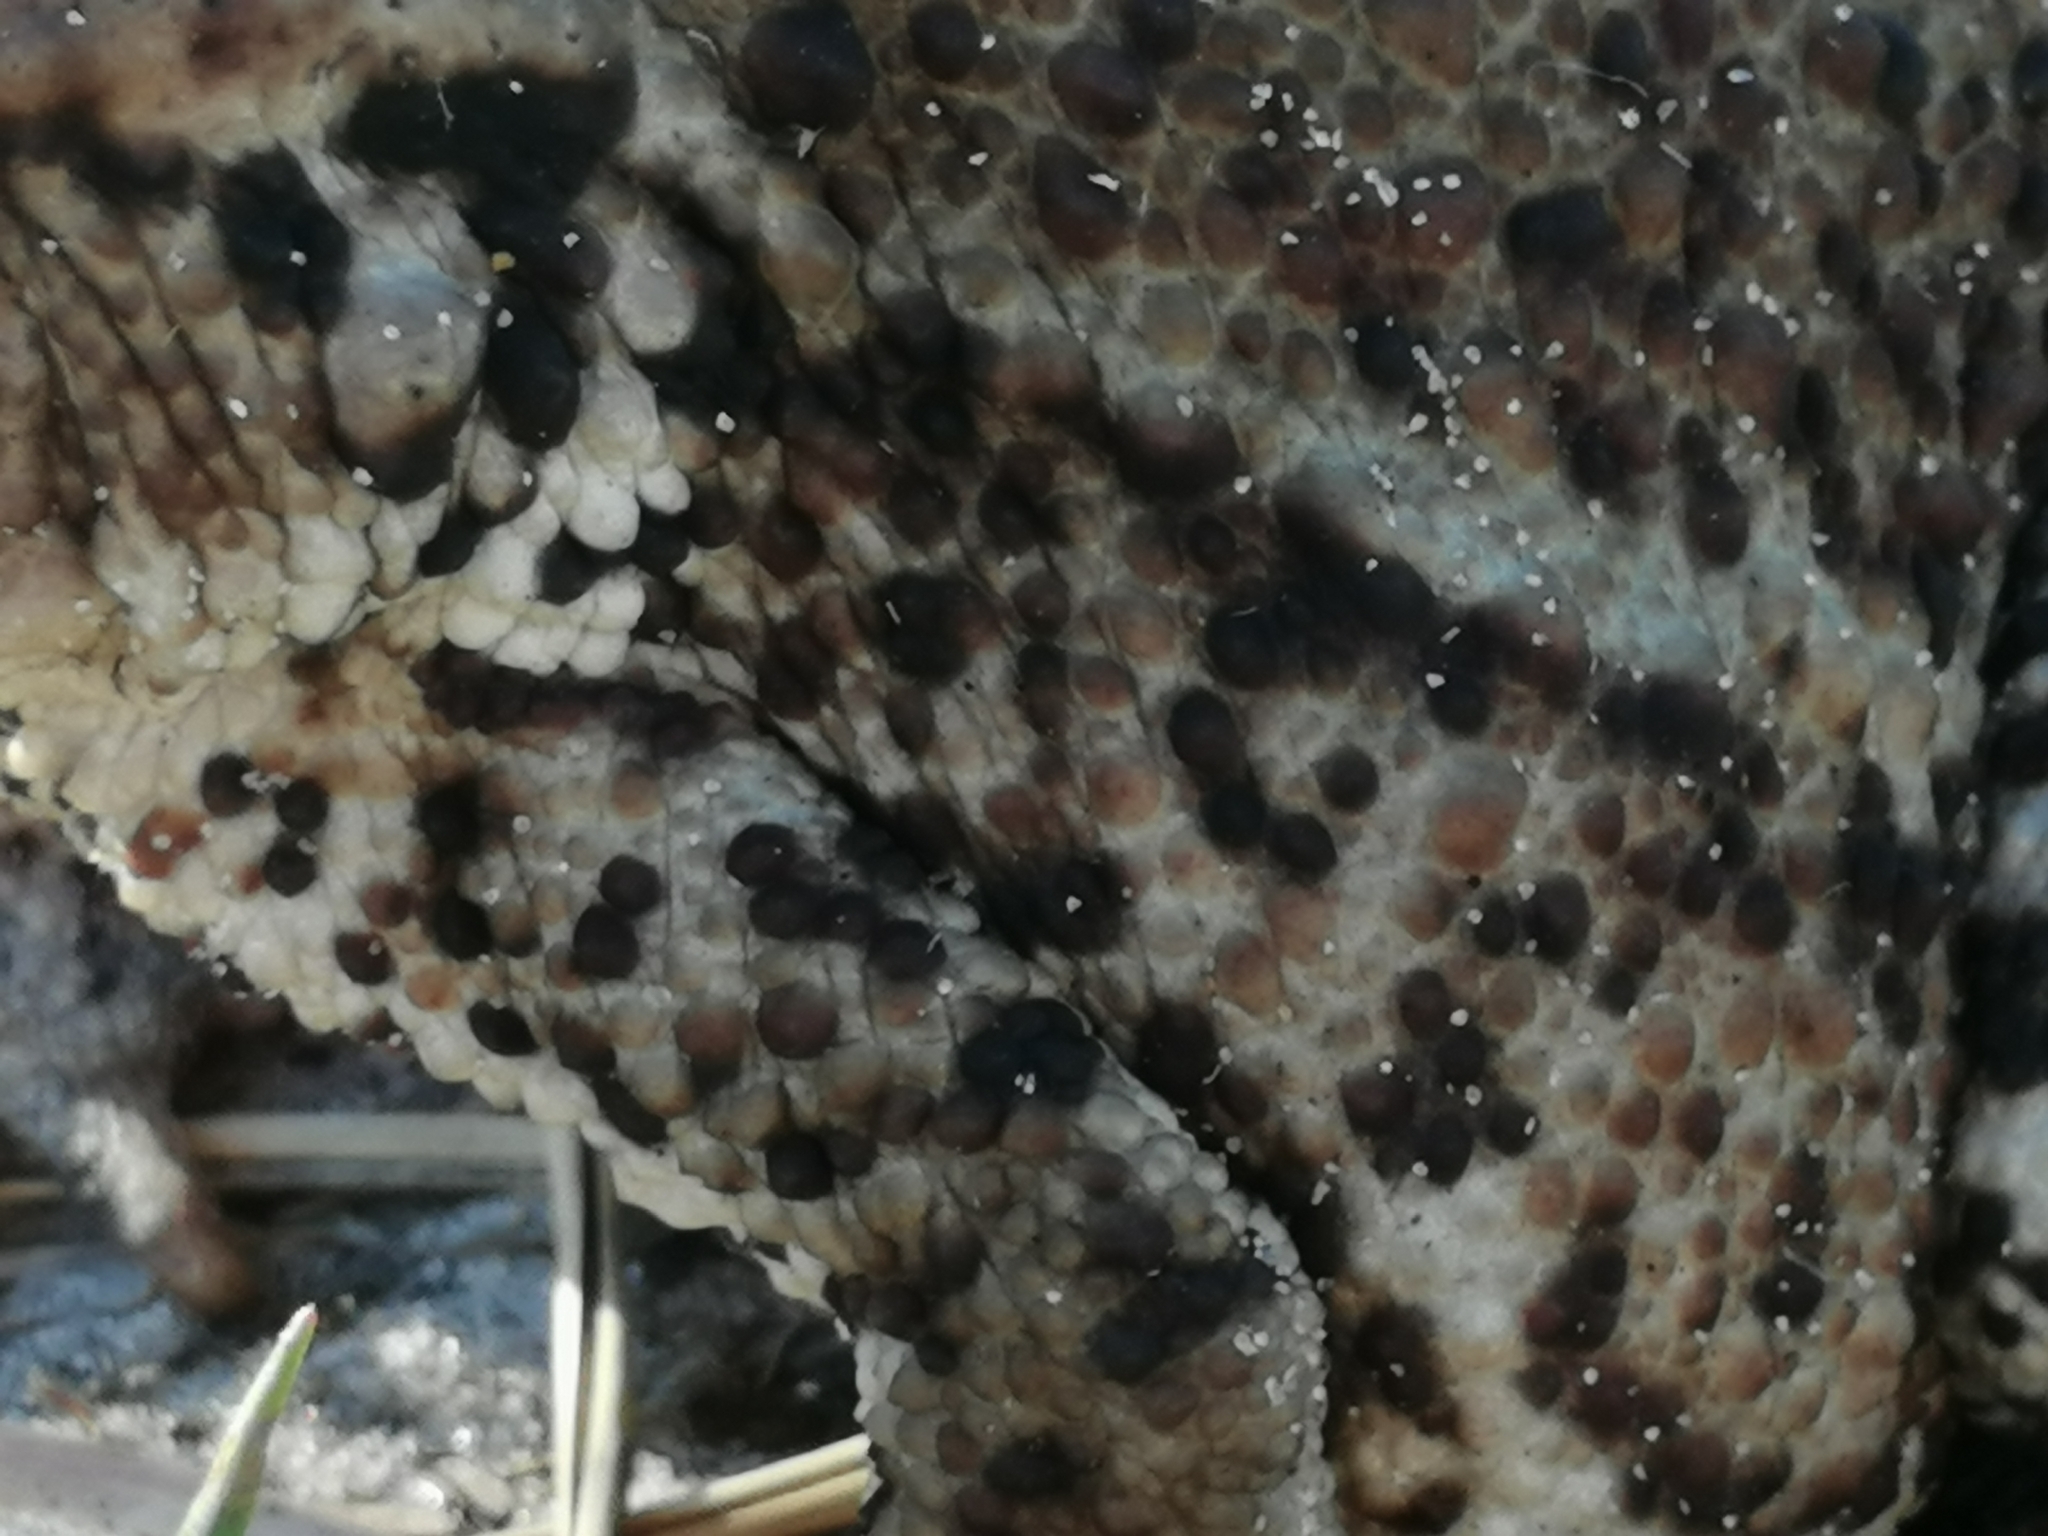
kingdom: Animalia
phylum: Chordata
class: Amphibia
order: Anura
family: Bufonidae
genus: Bufo
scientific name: Bufo bufo
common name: Common toad
